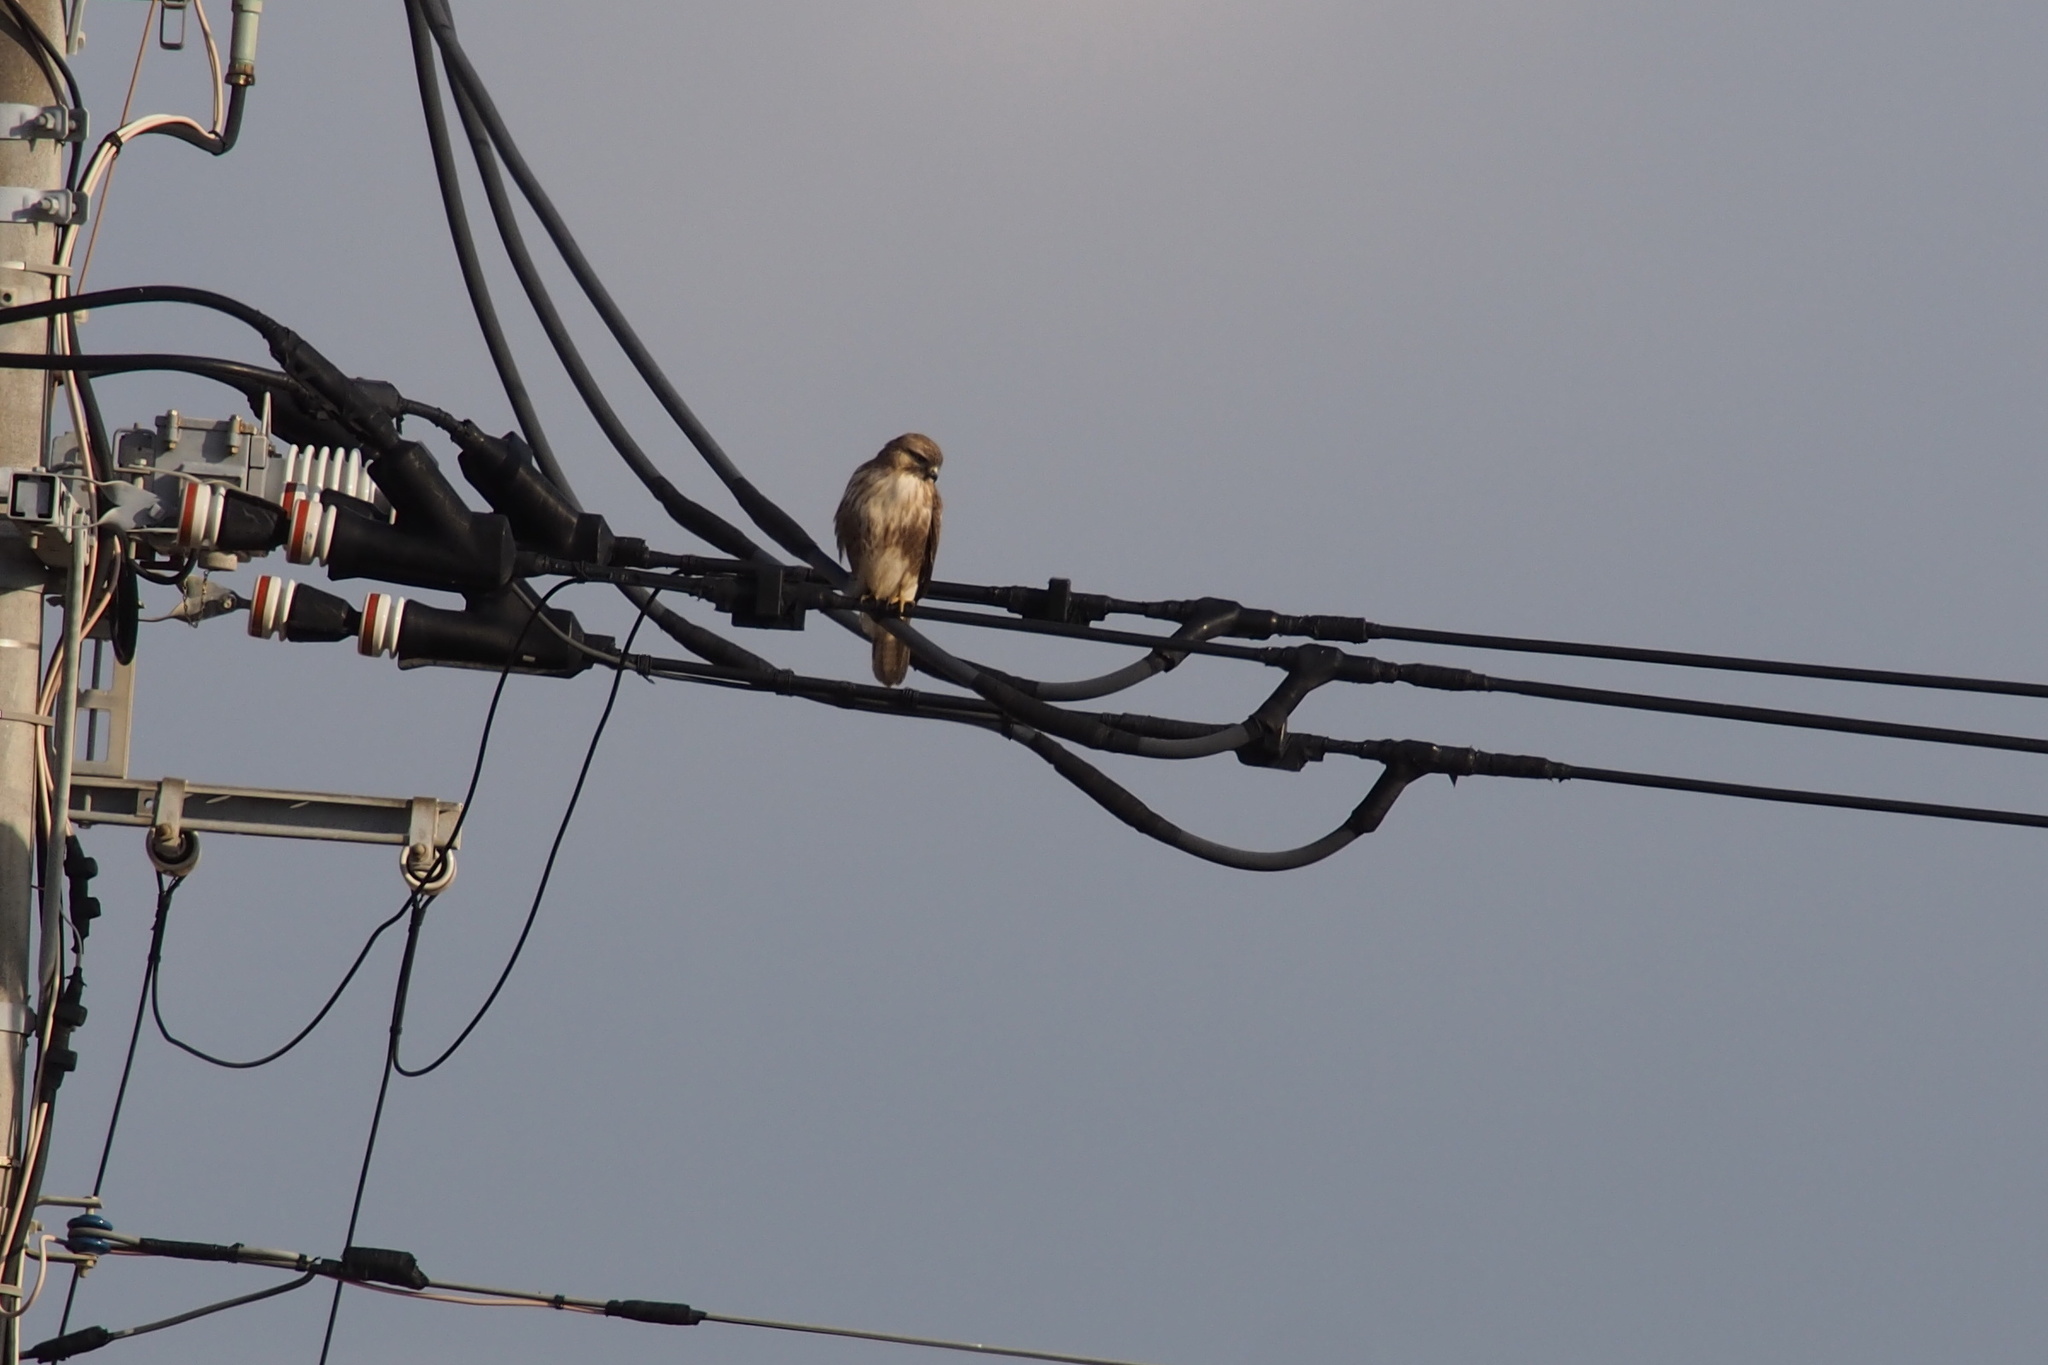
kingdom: Animalia
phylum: Chordata
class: Aves
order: Accipitriformes
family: Accipitridae
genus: Buteo
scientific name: Buteo japonicus
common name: Eastern buzzard
